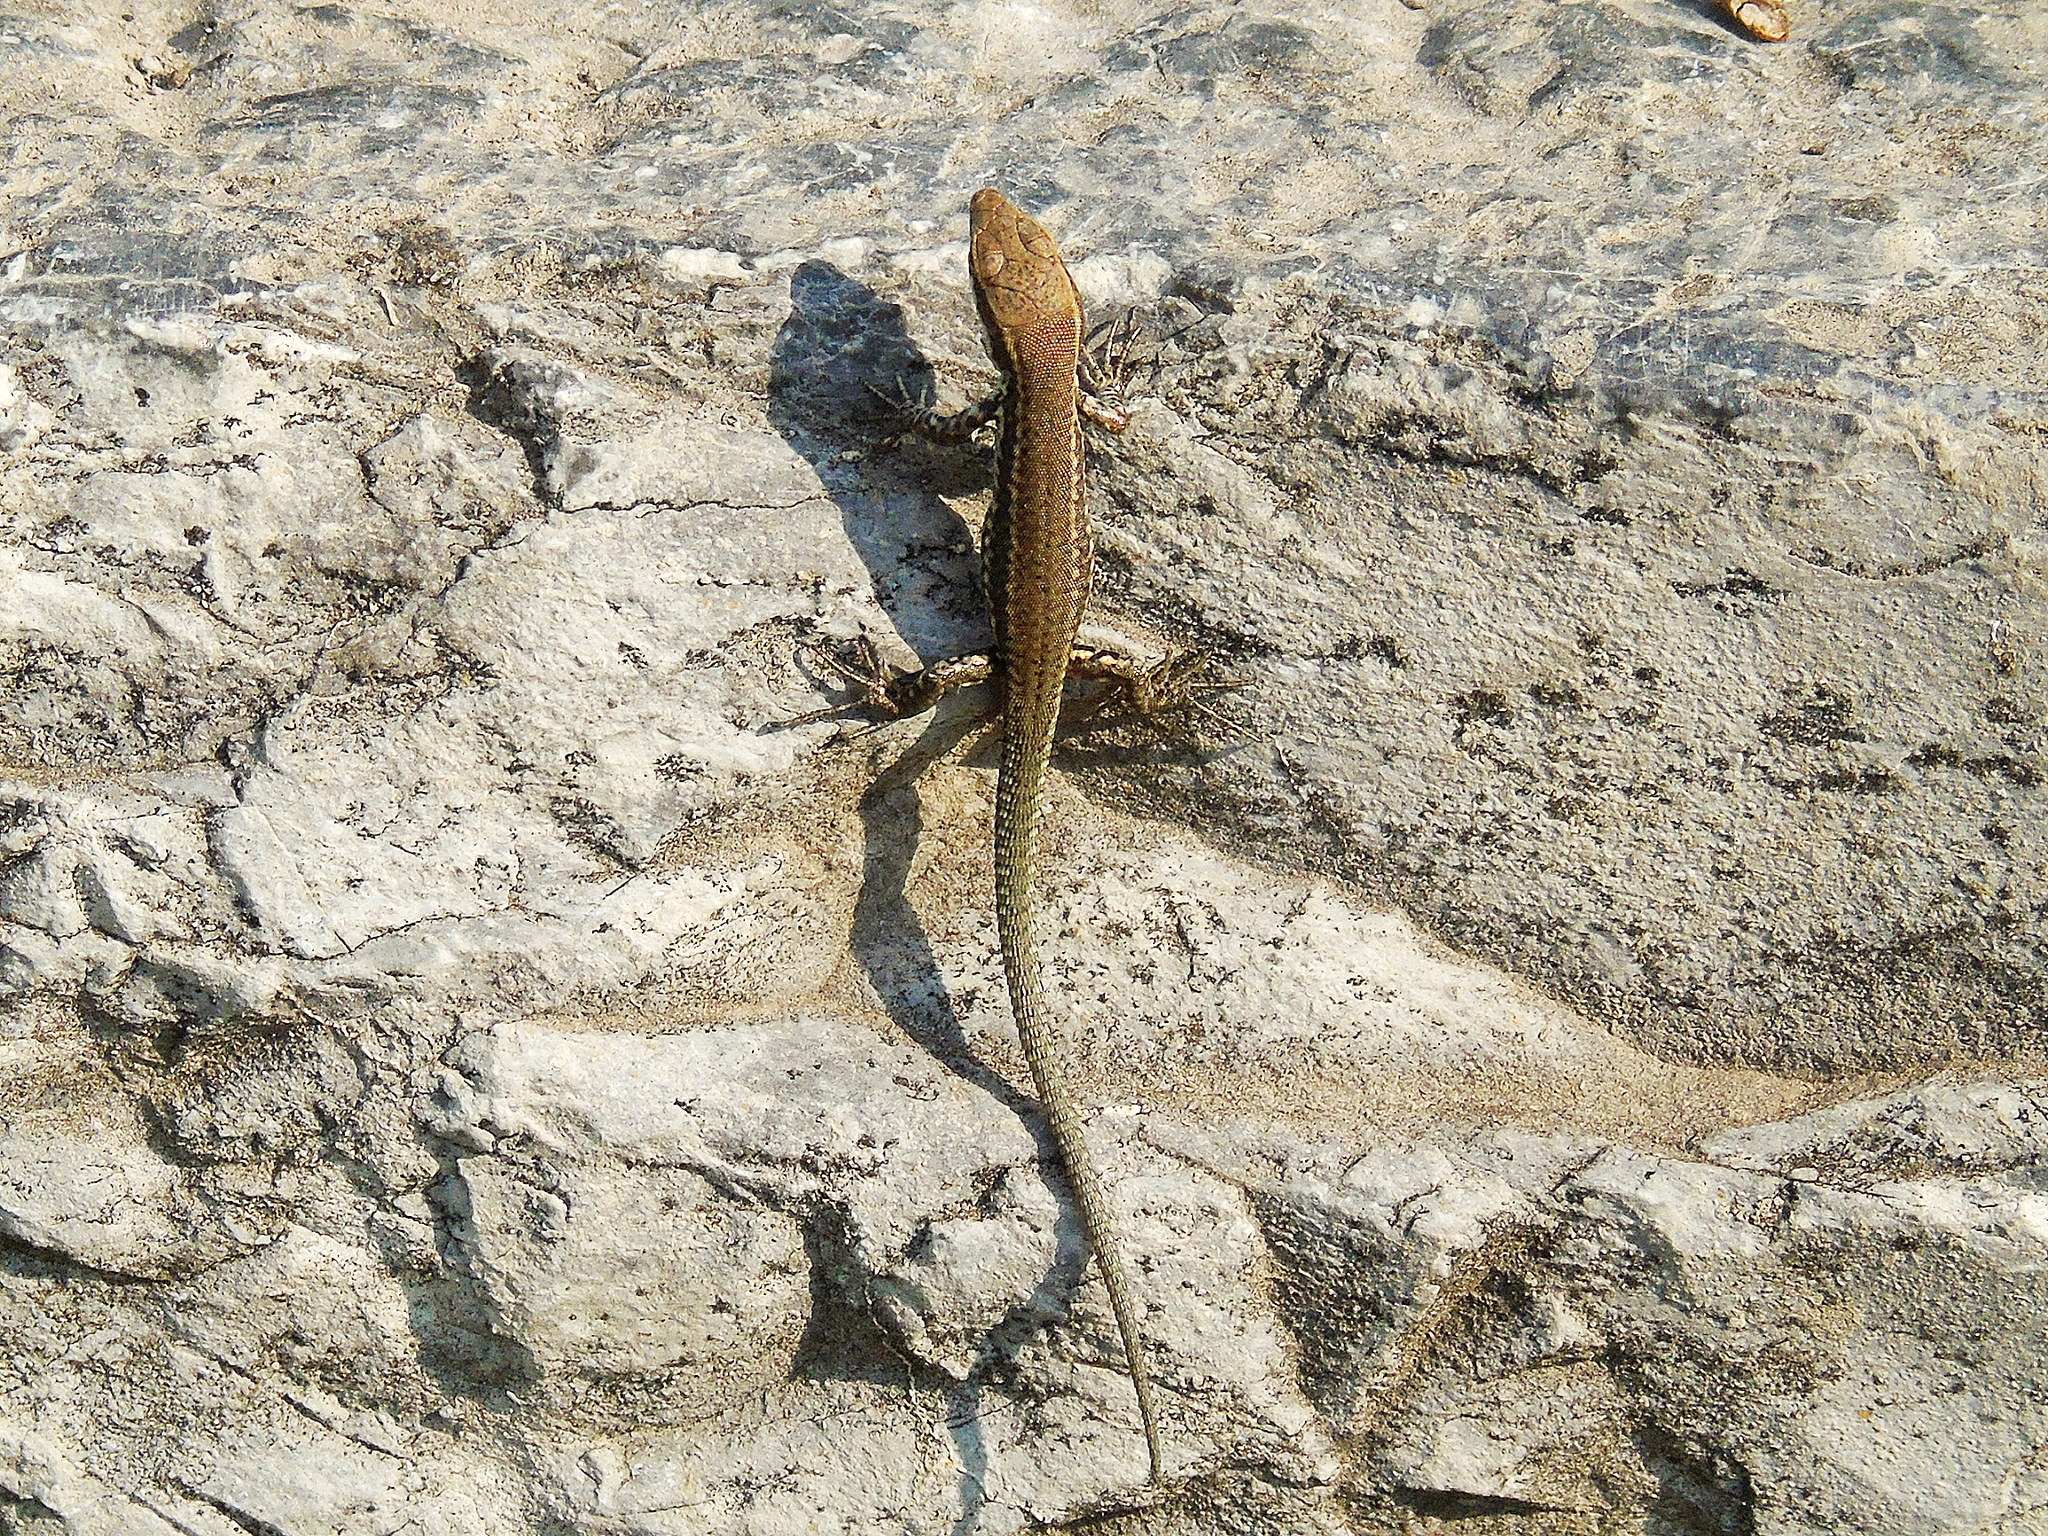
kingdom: Animalia
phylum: Chordata
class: Squamata
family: Lacertidae
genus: Podarcis
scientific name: Podarcis muralis
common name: Common wall lizard
